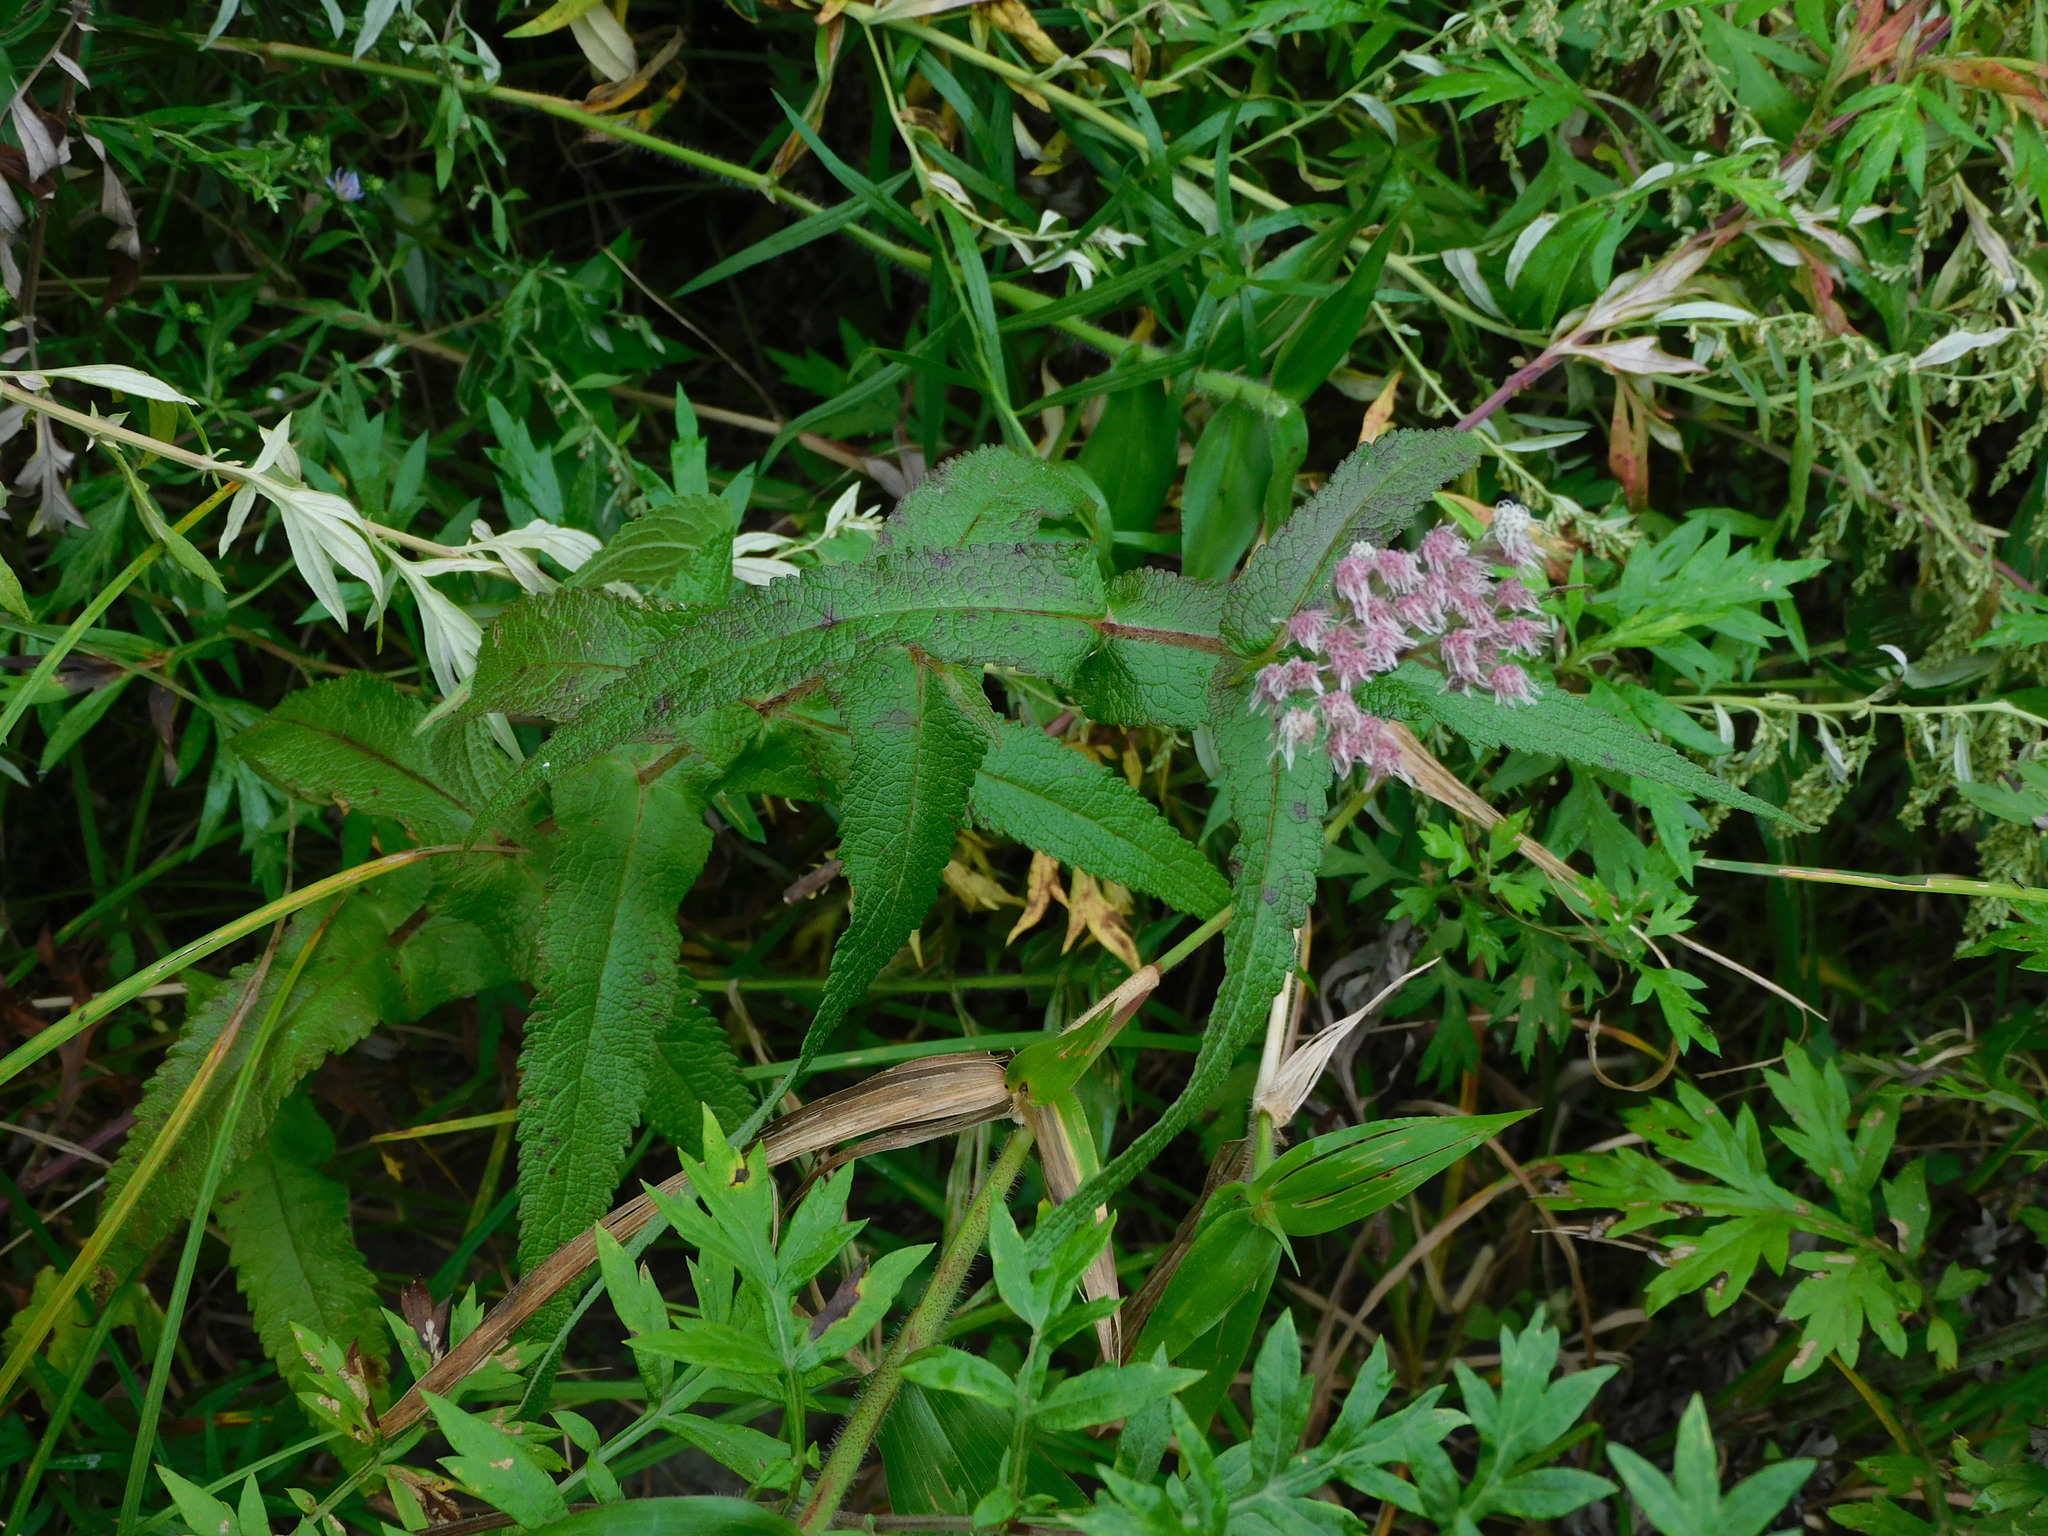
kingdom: Plantae
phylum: Tracheophyta
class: Magnoliopsida
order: Asterales
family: Asteraceae
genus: Eupatorium
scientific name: Eupatorium perfoliatum
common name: Boneset
